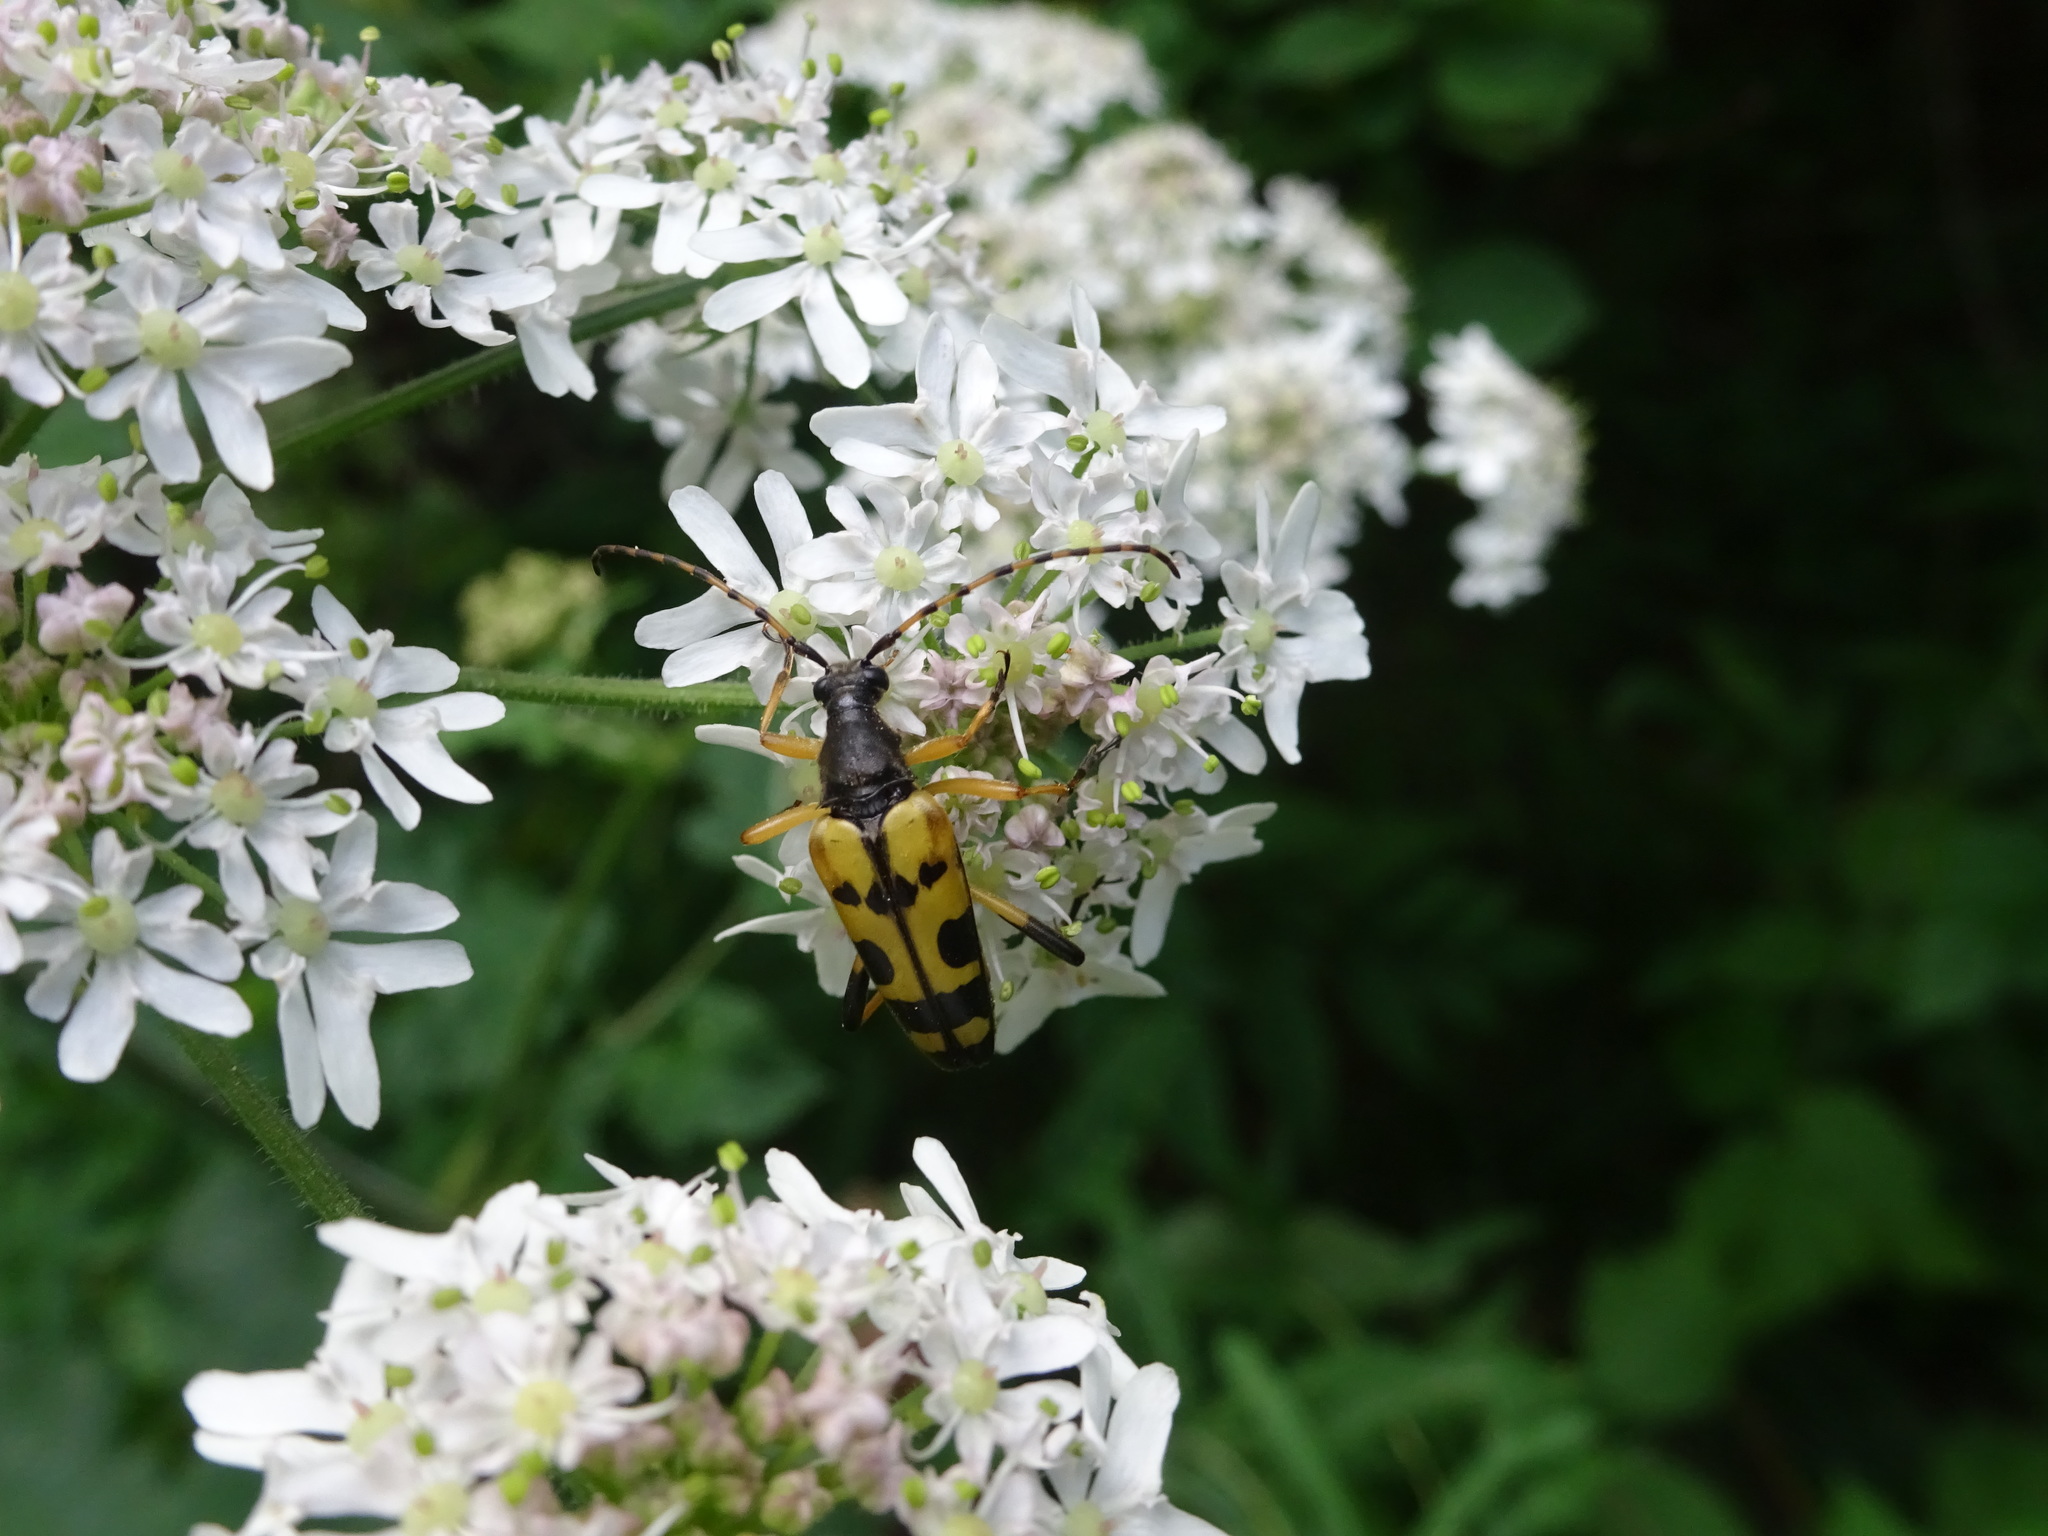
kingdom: Animalia
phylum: Arthropoda
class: Insecta
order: Coleoptera
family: Cerambycidae
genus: Rutpela
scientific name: Rutpela maculata
